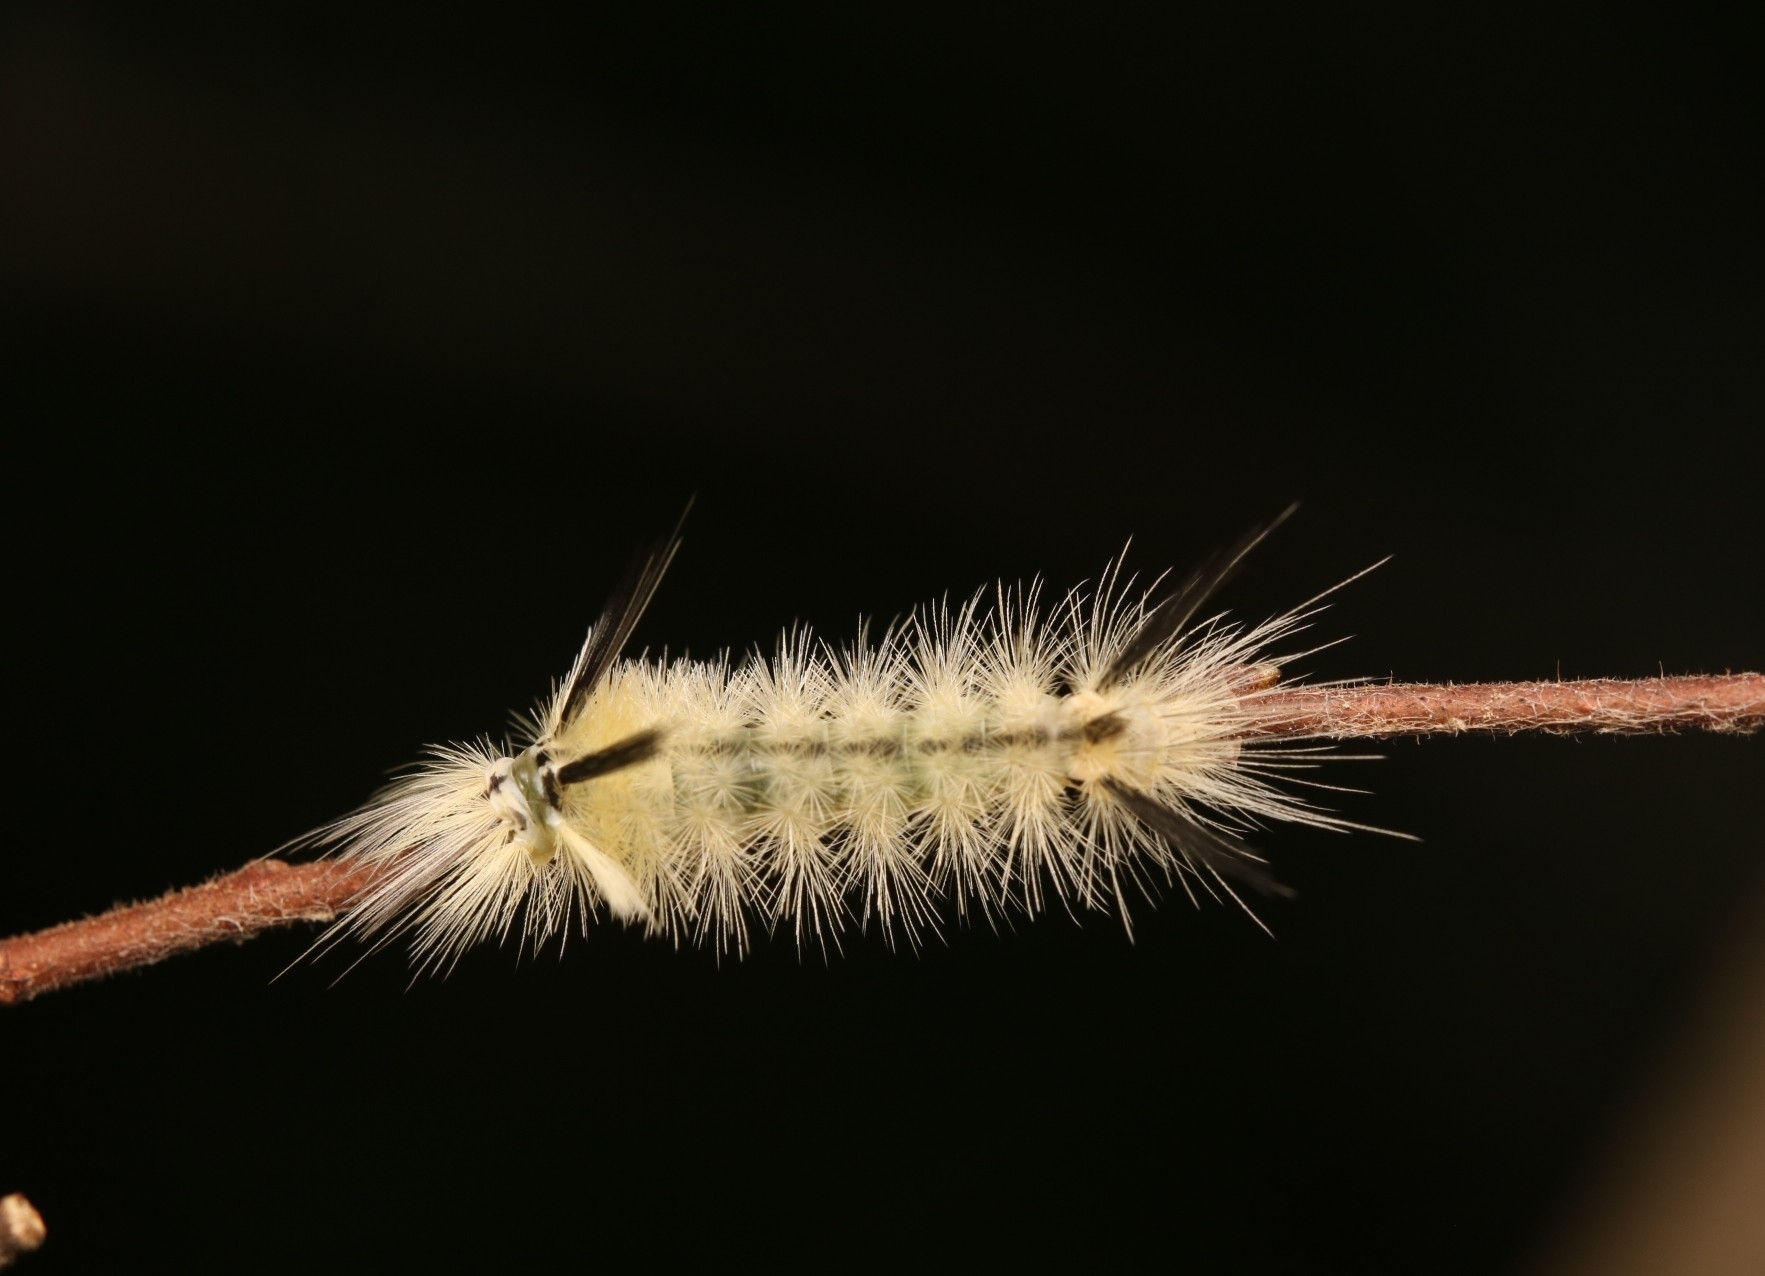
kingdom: Animalia
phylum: Arthropoda
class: Insecta
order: Lepidoptera
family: Erebidae
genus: Halysidota
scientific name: Halysidota tessellaris
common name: Banded tussock moth
